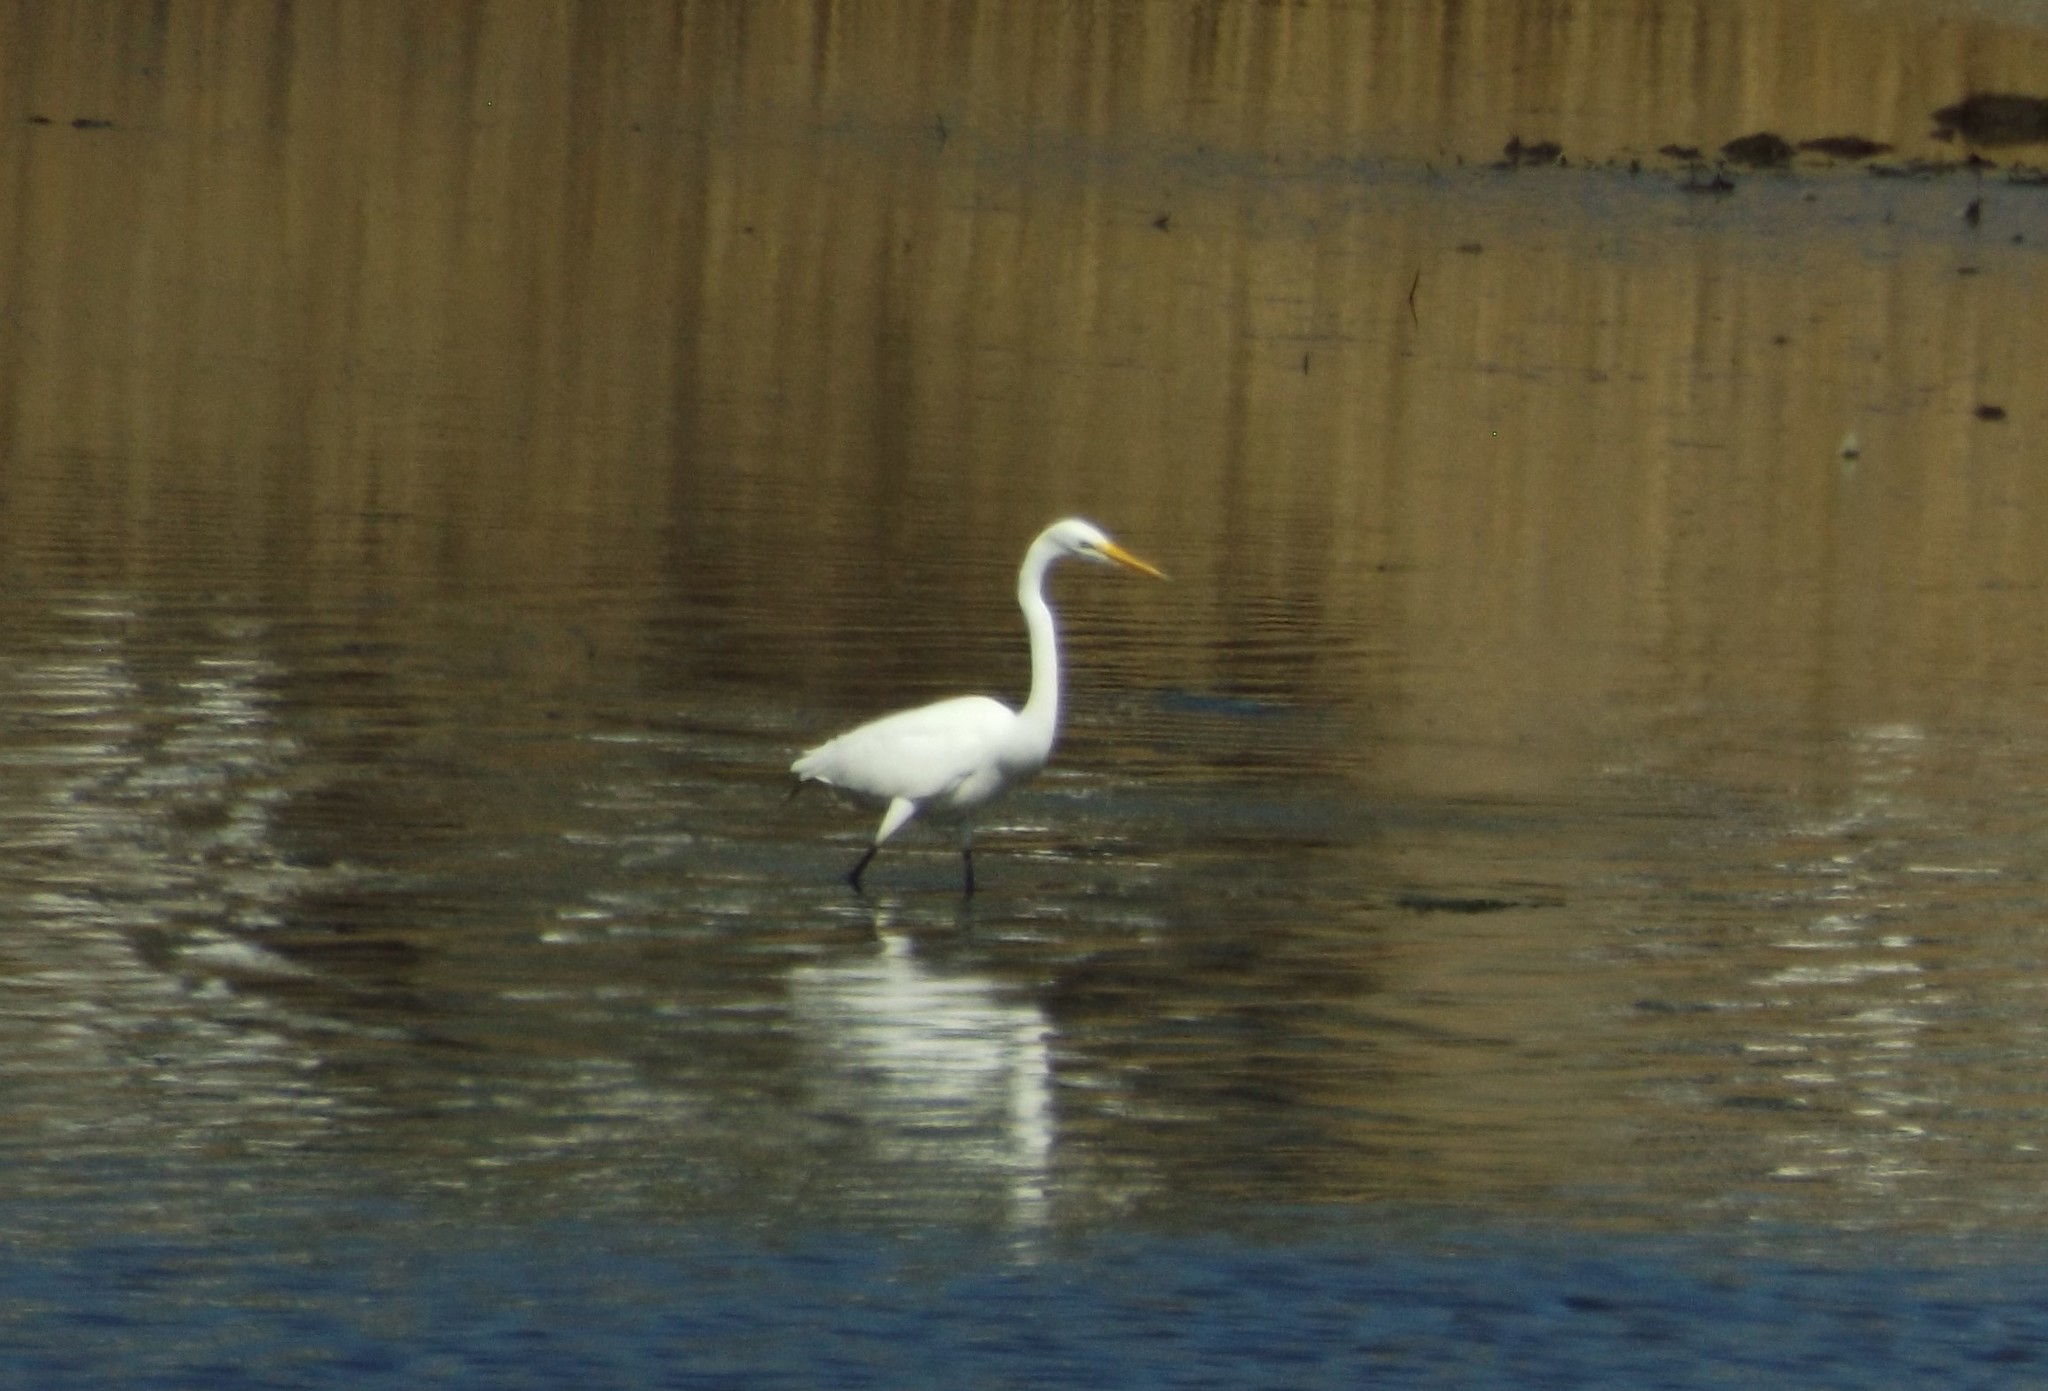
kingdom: Animalia
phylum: Chordata
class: Aves
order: Pelecaniformes
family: Ardeidae
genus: Ardea
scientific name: Ardea alba
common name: Great egret
